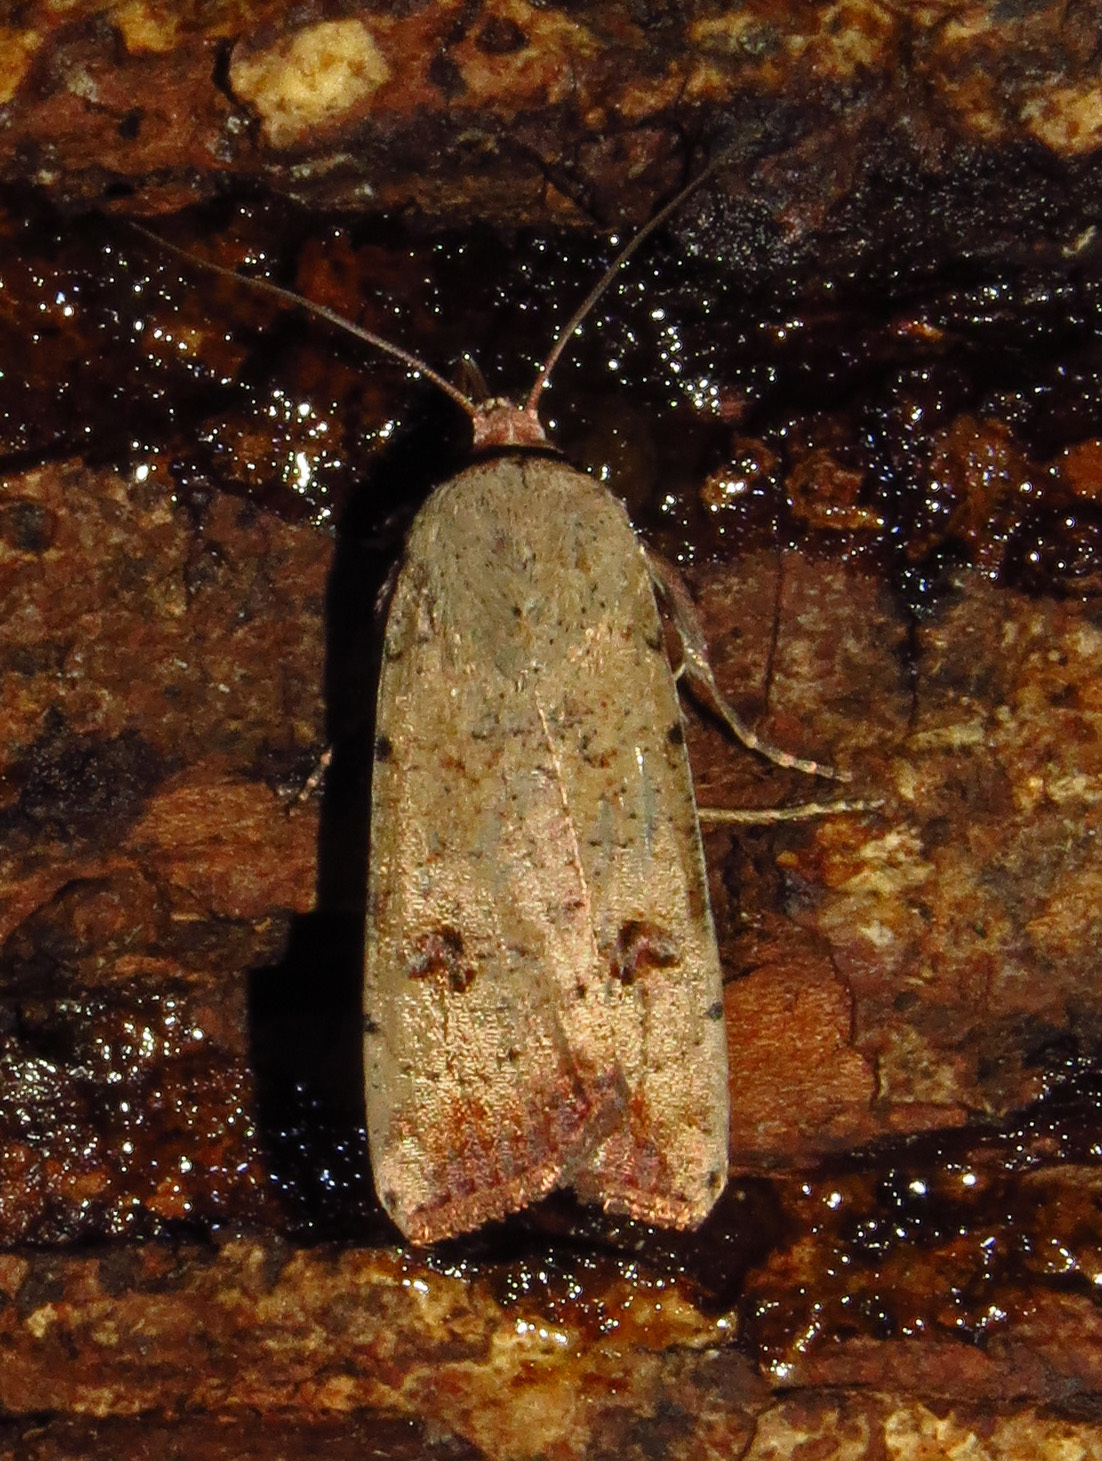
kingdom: Animalia
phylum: Arthropoda
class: Insecta
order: Lepidoptera
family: Noctuidae
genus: Anicla
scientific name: Anicla infecta
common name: Green cutworm
